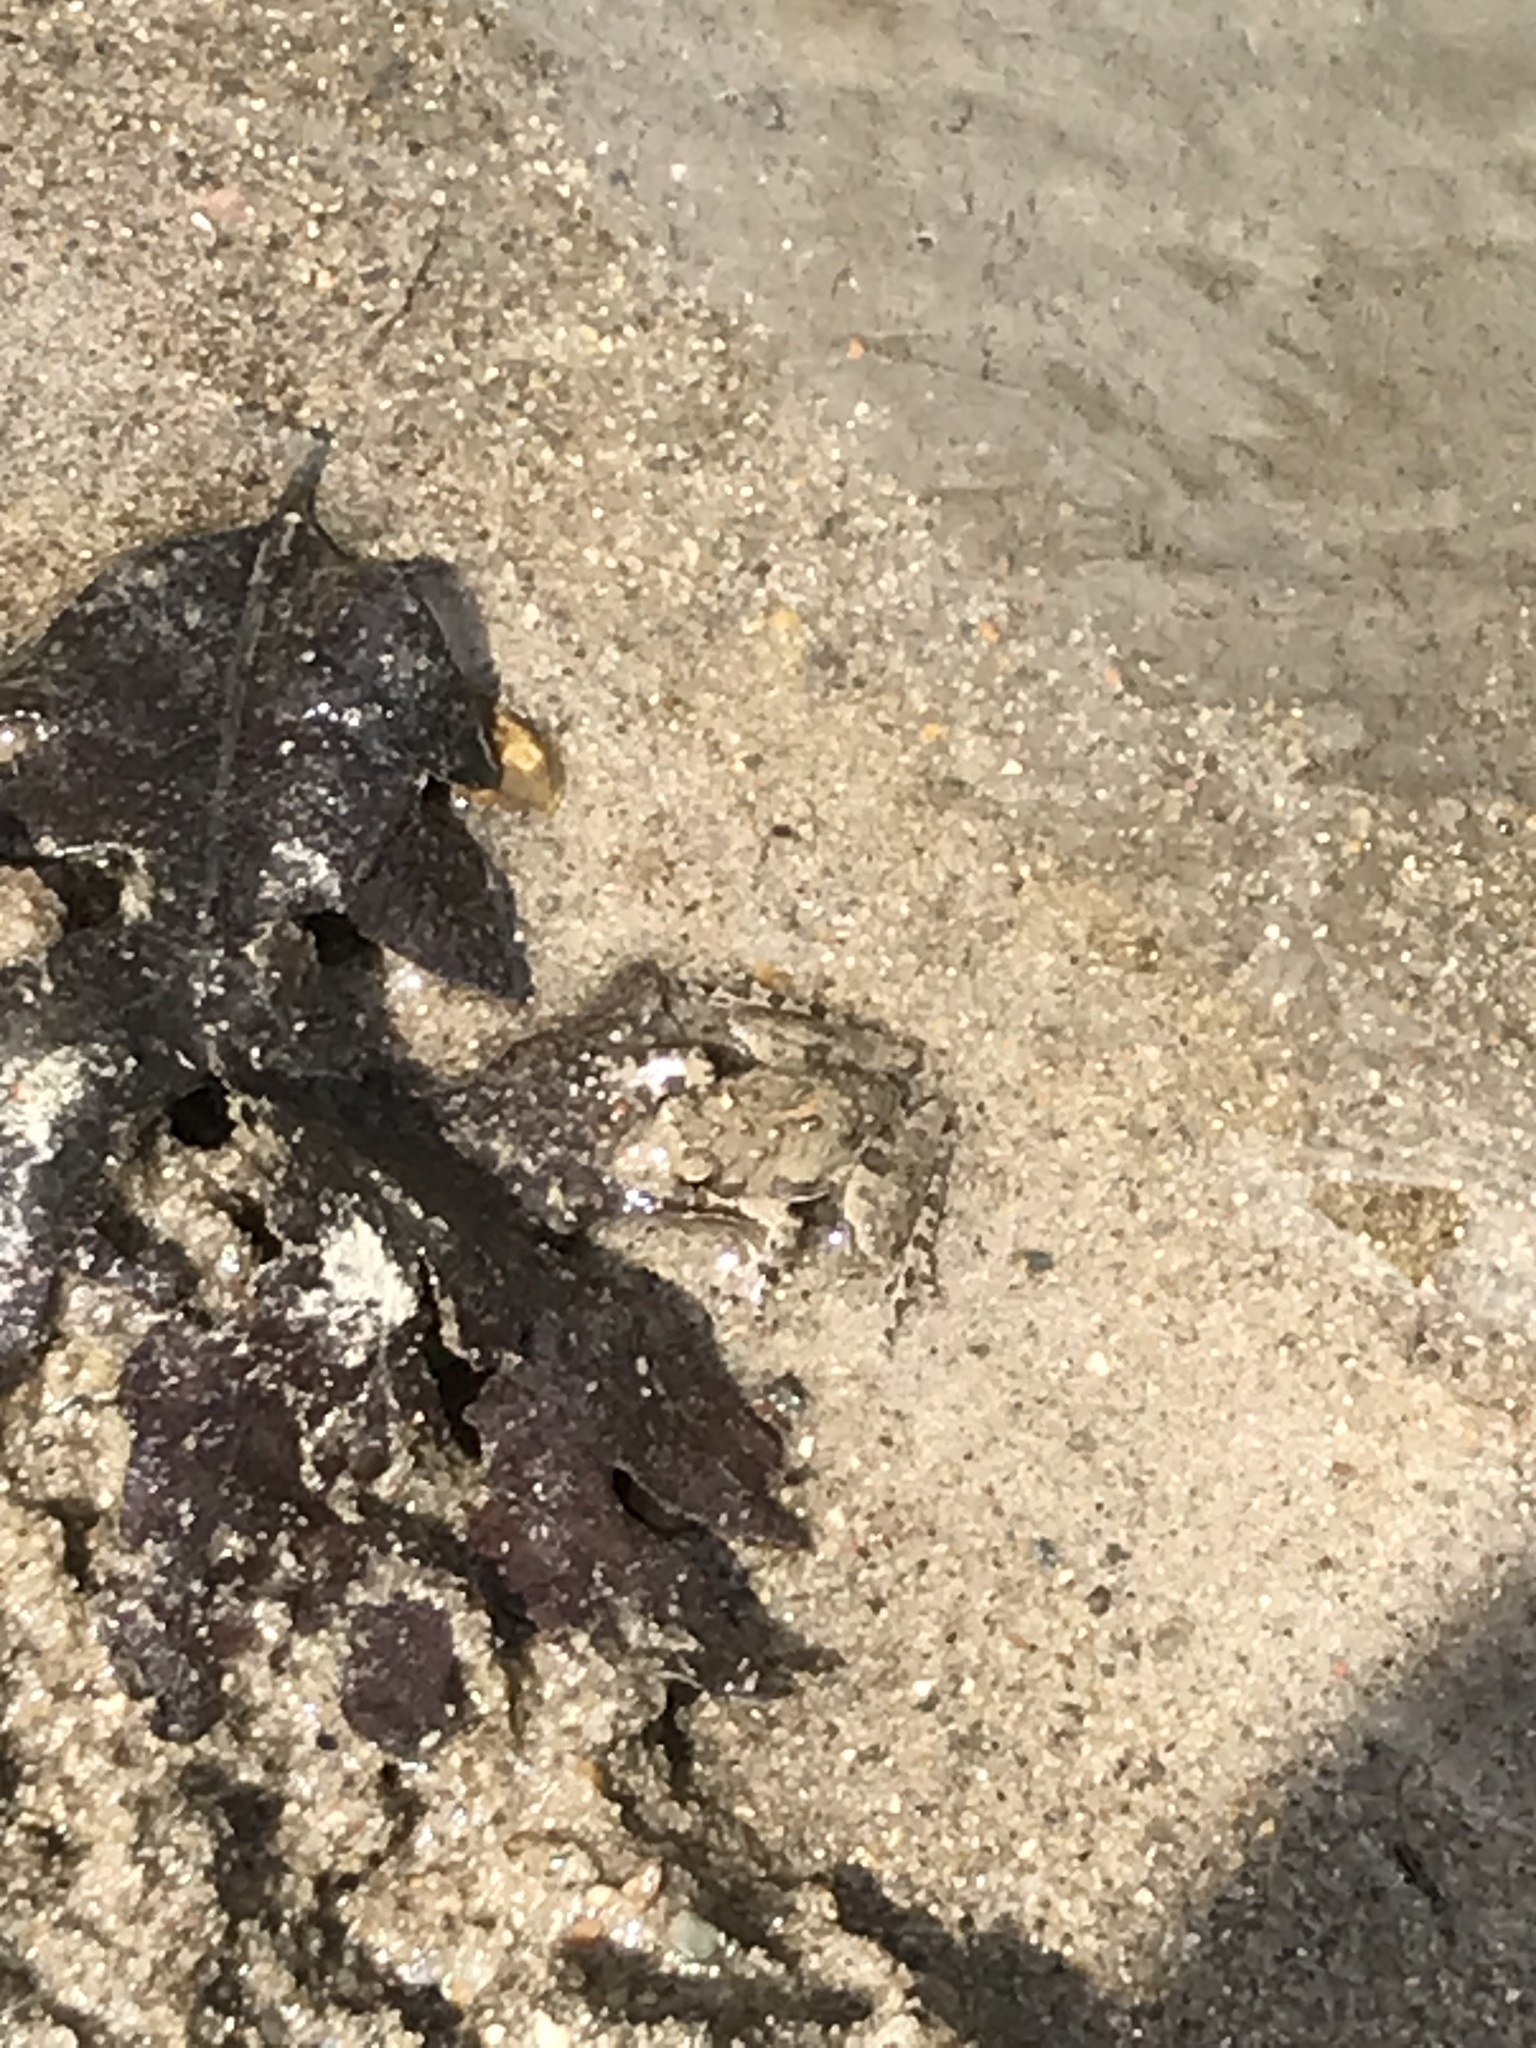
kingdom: Animalia
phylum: Chordata
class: Amphibia
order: Anura
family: Hylidae
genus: Acris
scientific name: Acris blanchardi
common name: Blanchard's cricket frog
